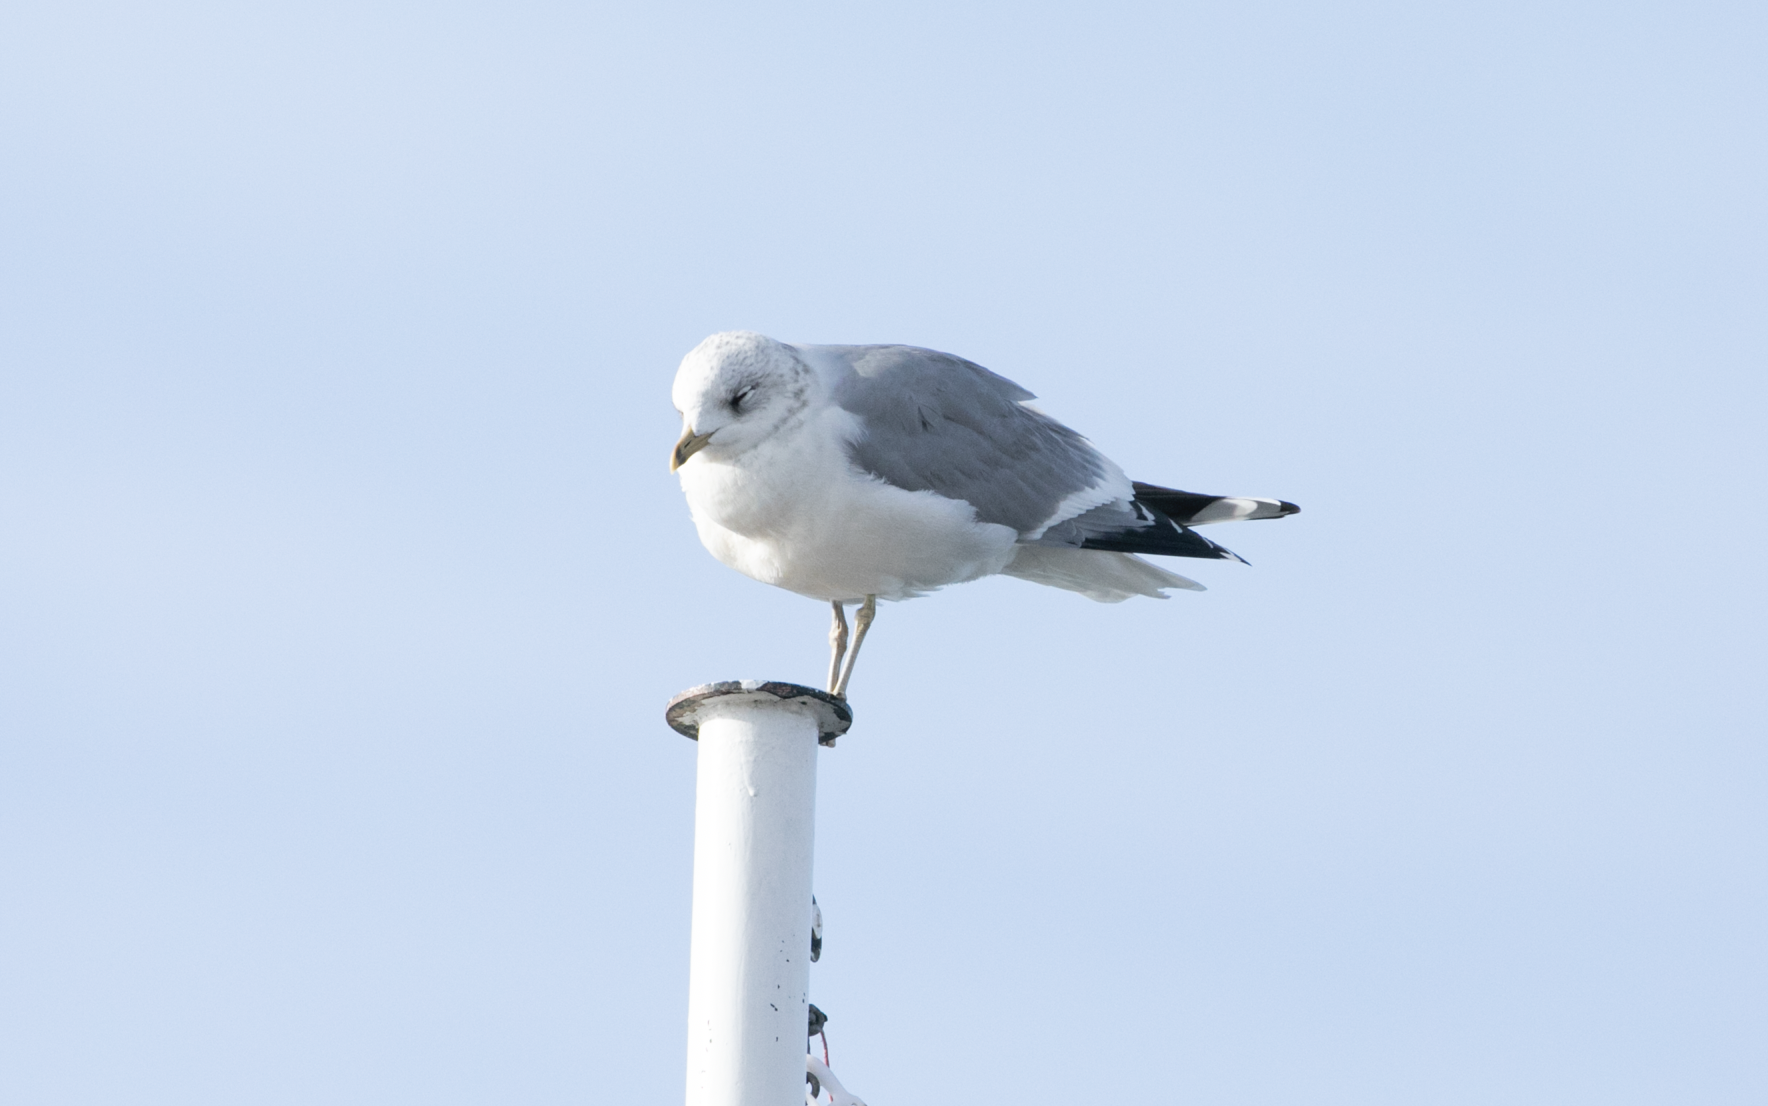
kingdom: Animalia
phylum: Chordata
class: Aves
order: Charadriiformes
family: Laridae
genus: Larus
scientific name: Larus canus
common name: Mew gull
